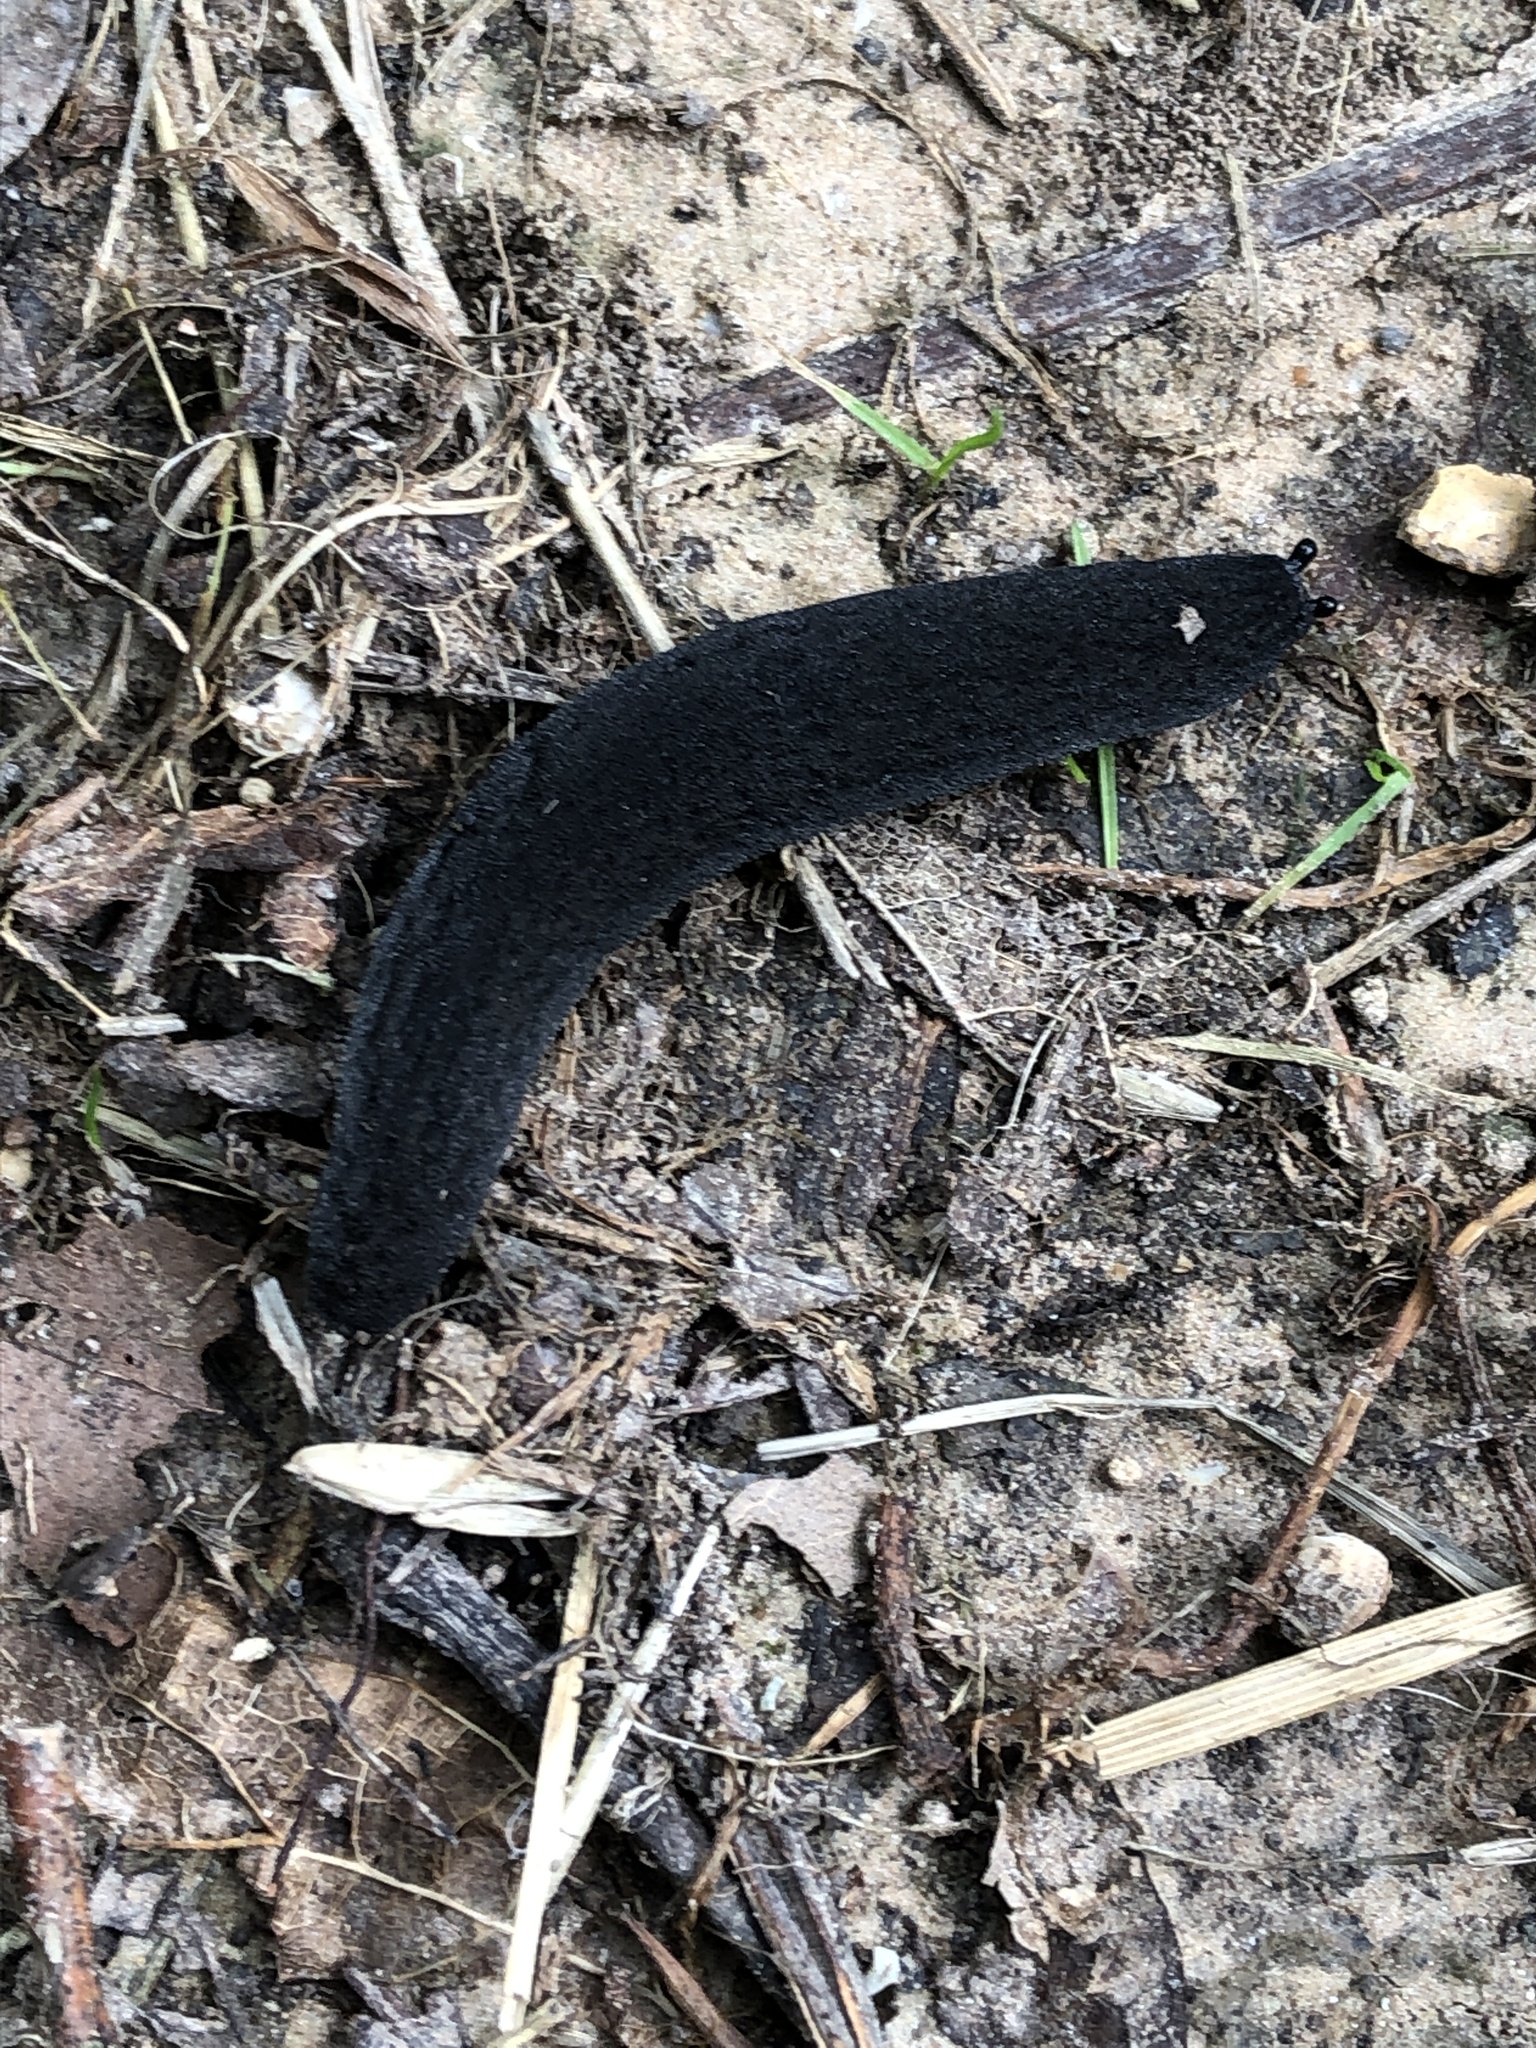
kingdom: Animalia
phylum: Mollusca
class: Gastropoda
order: Systellommatophora
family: Veronicellidae
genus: Belocaulus
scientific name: Belocaulus angustipes
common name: Black velvet leatherleaf slug
